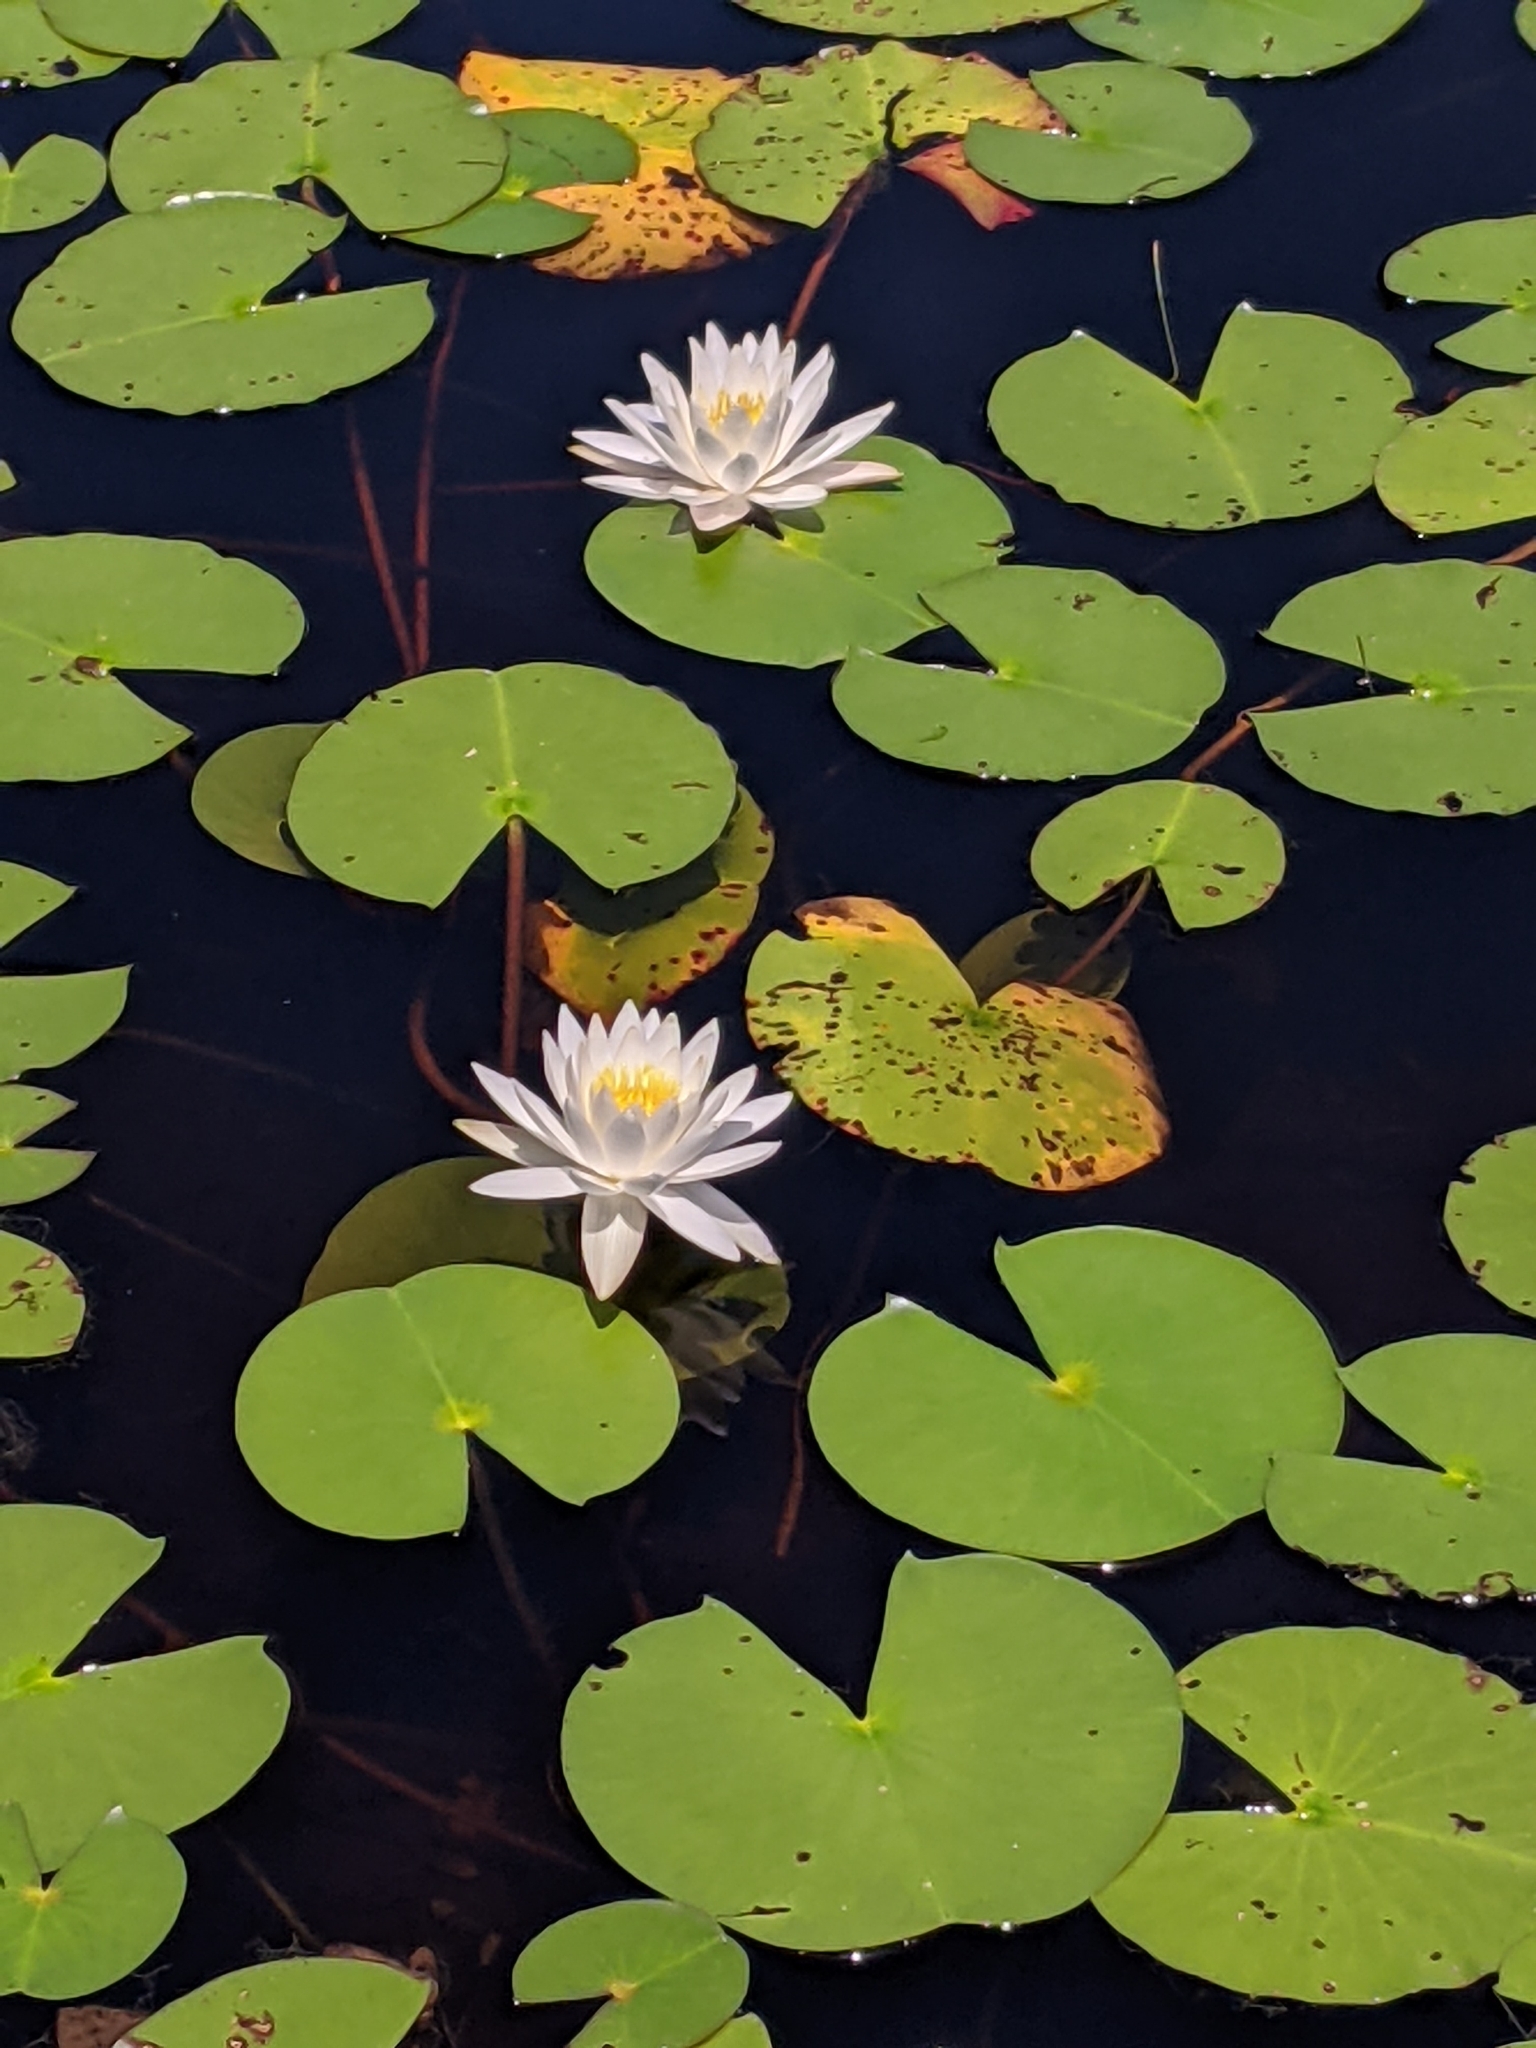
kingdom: Plantae
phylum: Tracheophyta
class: Magnoliopsida
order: Nymphaeales
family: Nymphaeaceae
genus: Nymphaea
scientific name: Nymphaea odorata
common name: Fragrant water-lily
